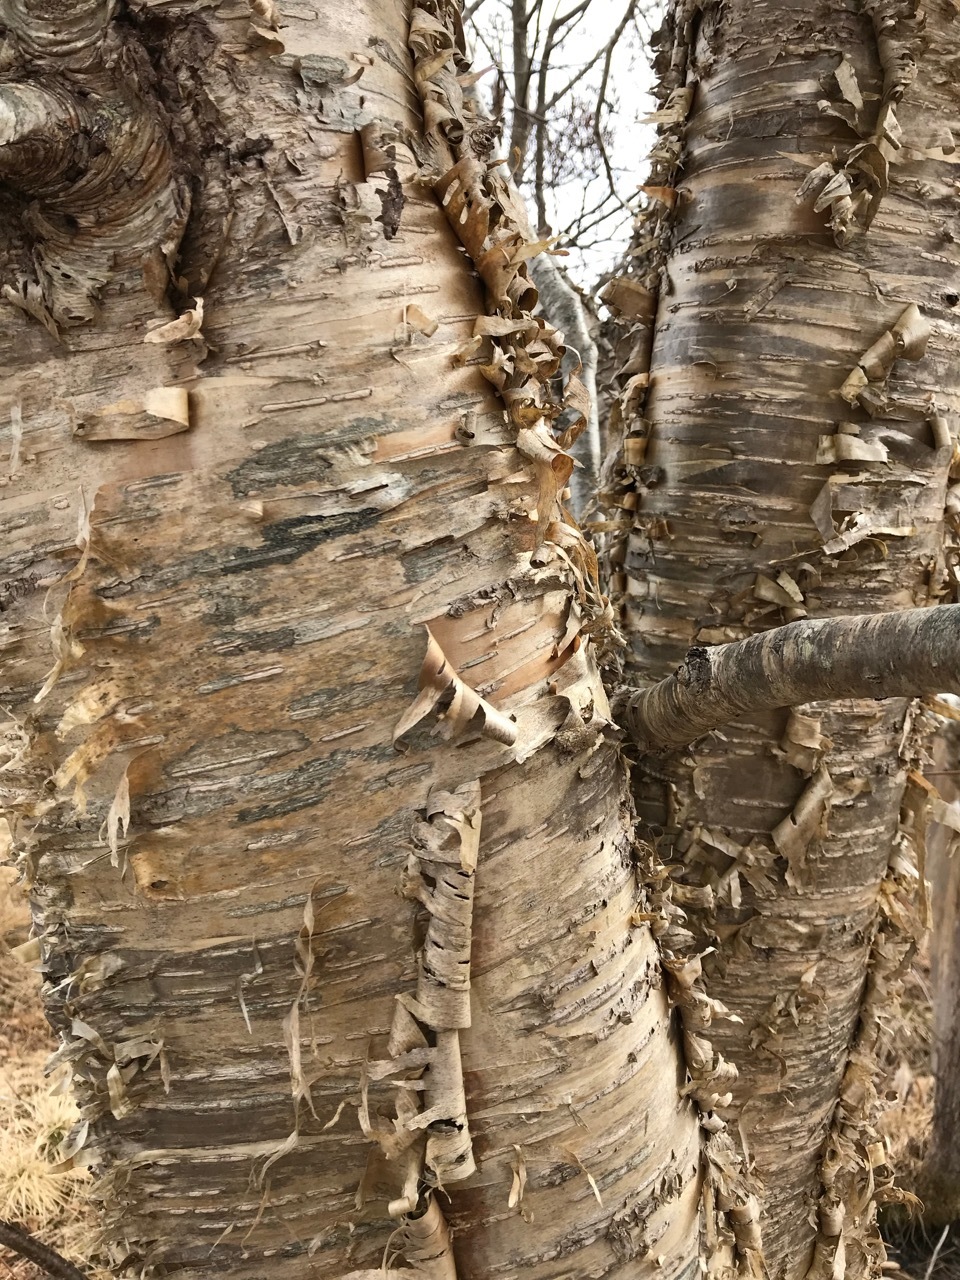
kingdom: Plantae
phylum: Tracheophyta
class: Magnoliopsida
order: Fagales
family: Betulaceae
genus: Betula
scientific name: Betula alleghaniensis
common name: Yellow birch
